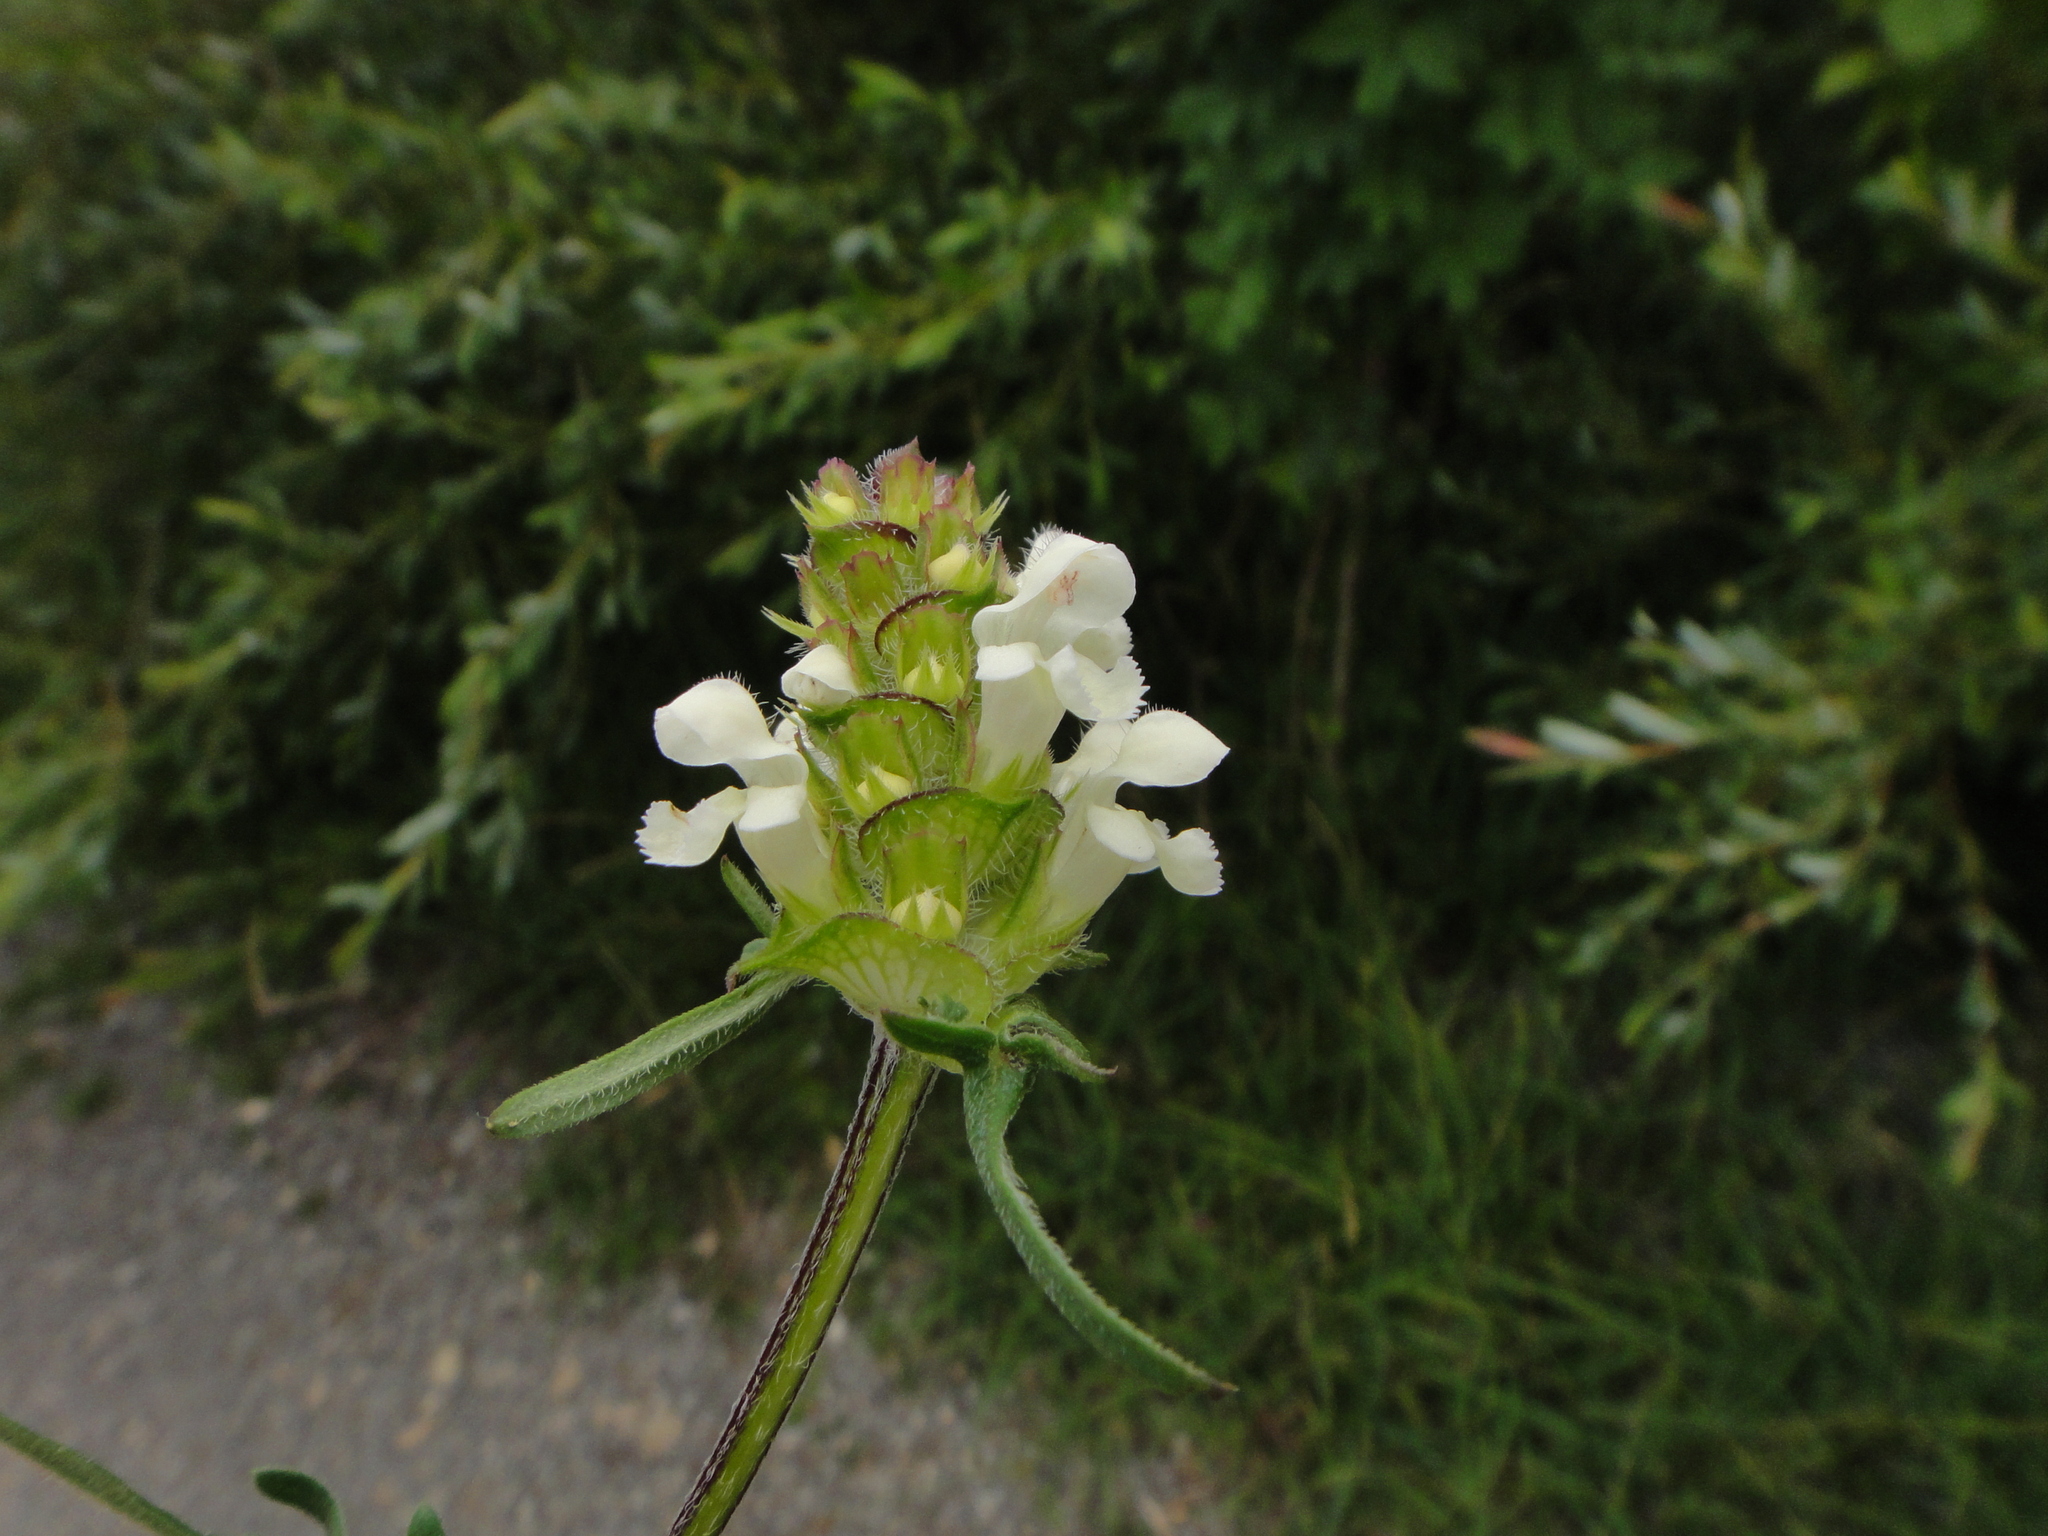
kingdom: Plantae
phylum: Tracheophyta
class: Magnoliopsida
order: Lamiales
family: Lamiaceae
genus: Prunella
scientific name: Prunella laciniata
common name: Cut-leaved selfheal
